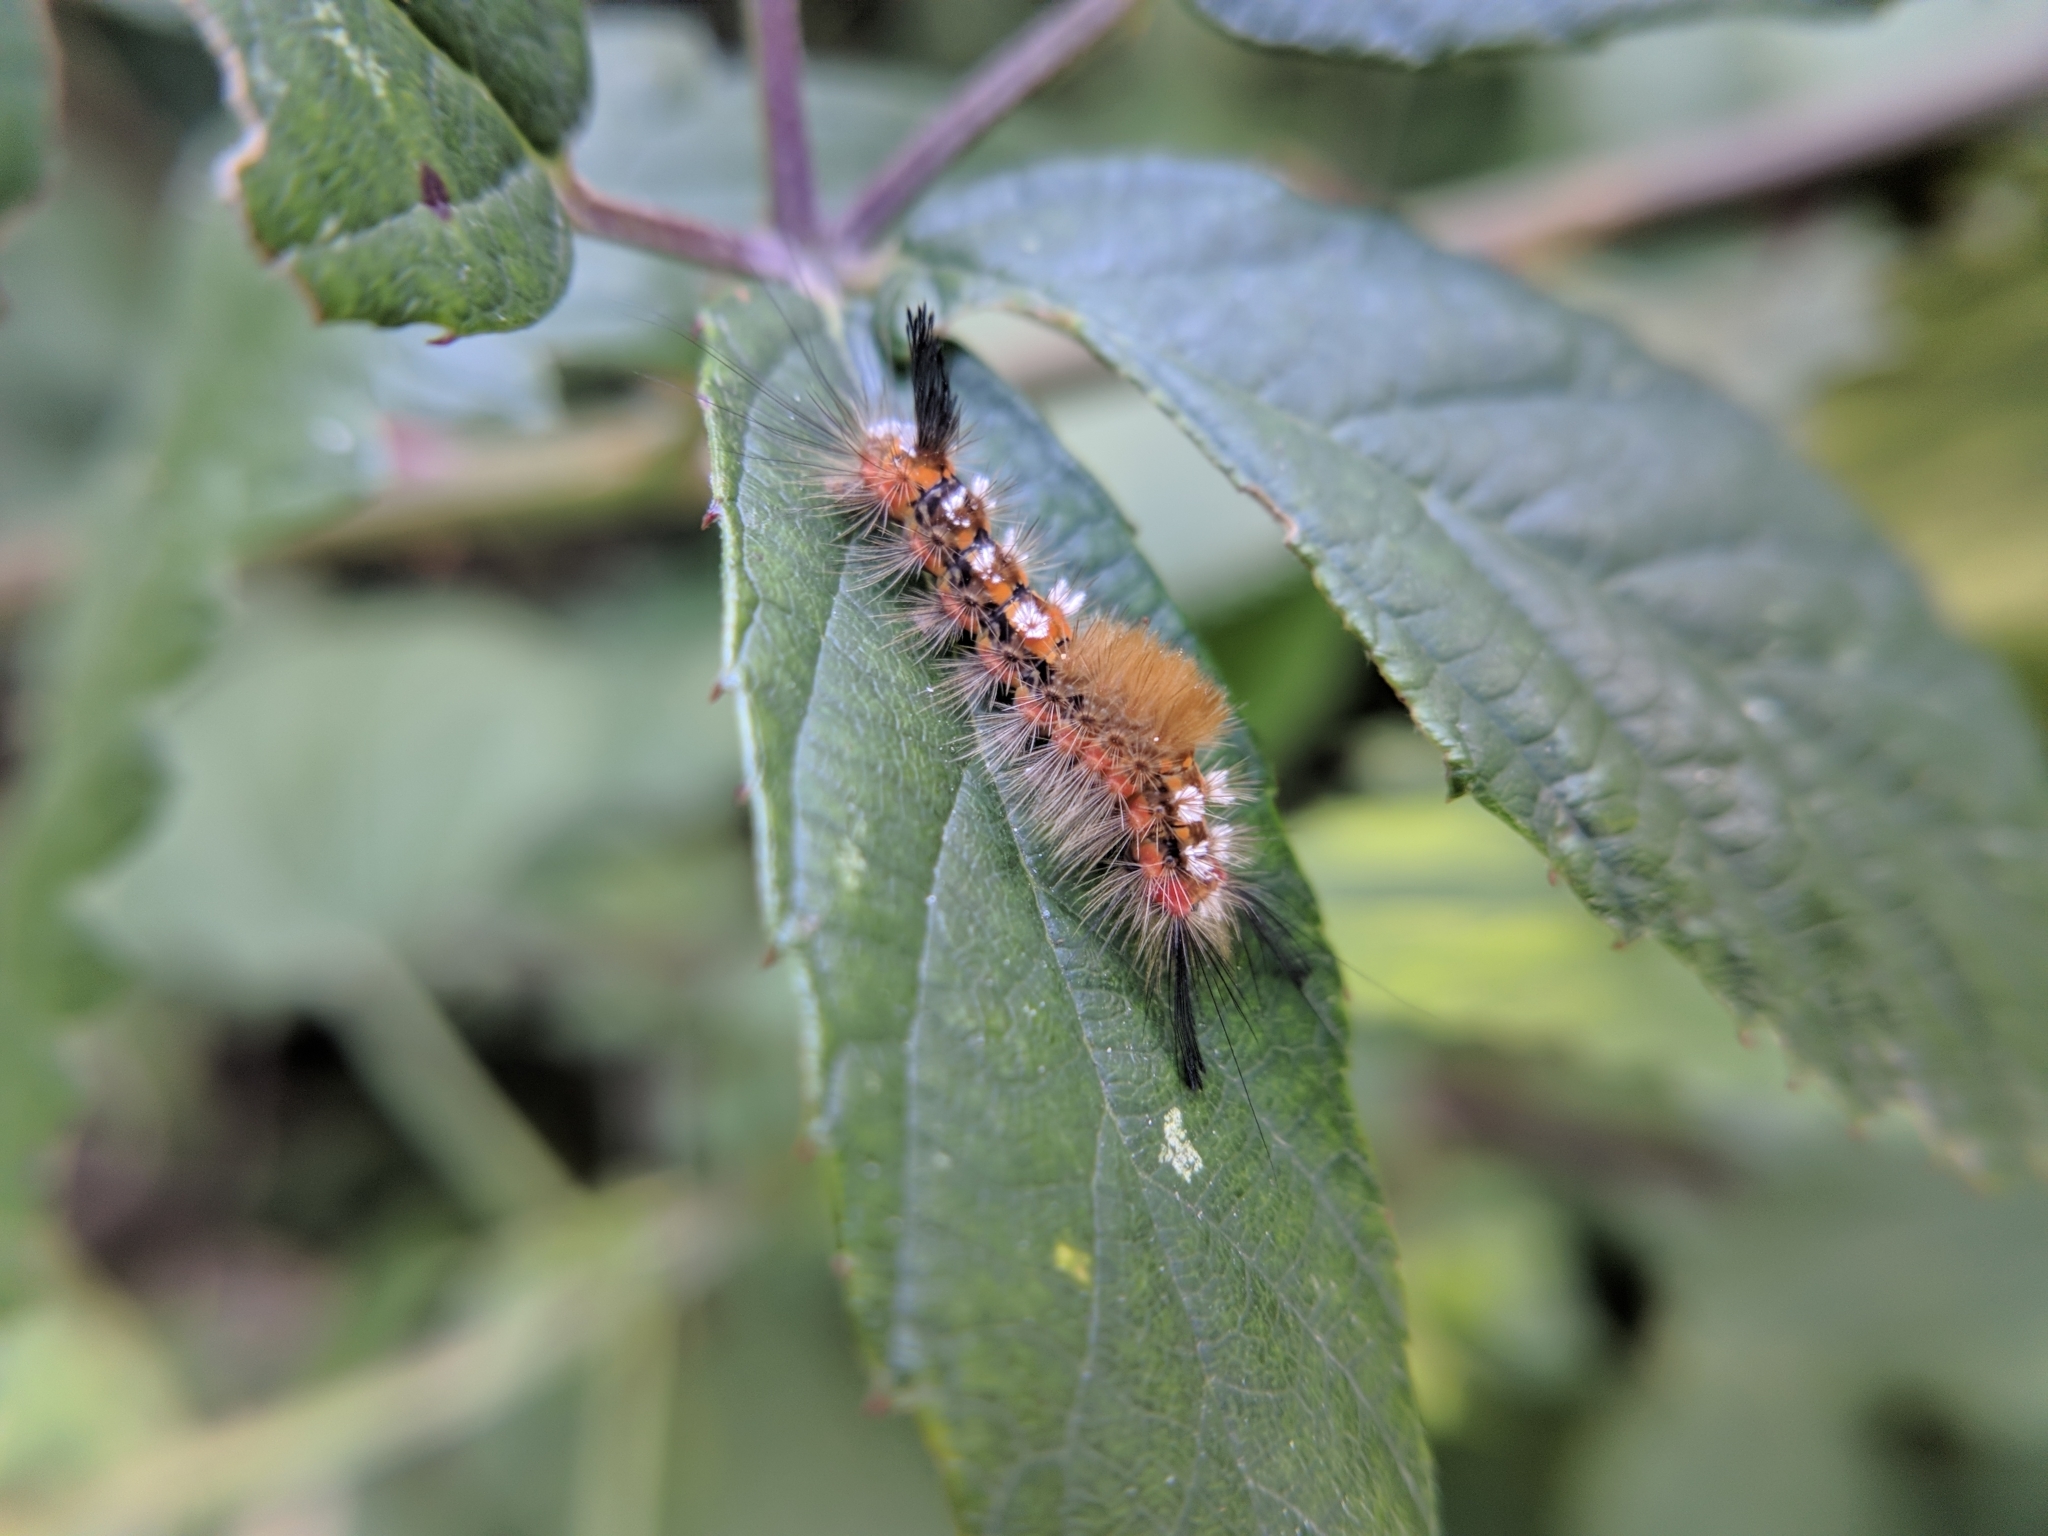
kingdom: Animalia
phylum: Arthropoda
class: Insecta
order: Lepidoptera
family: Erebidae
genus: Orgyia
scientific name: Orgyia recens
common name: Scarce vapourer
